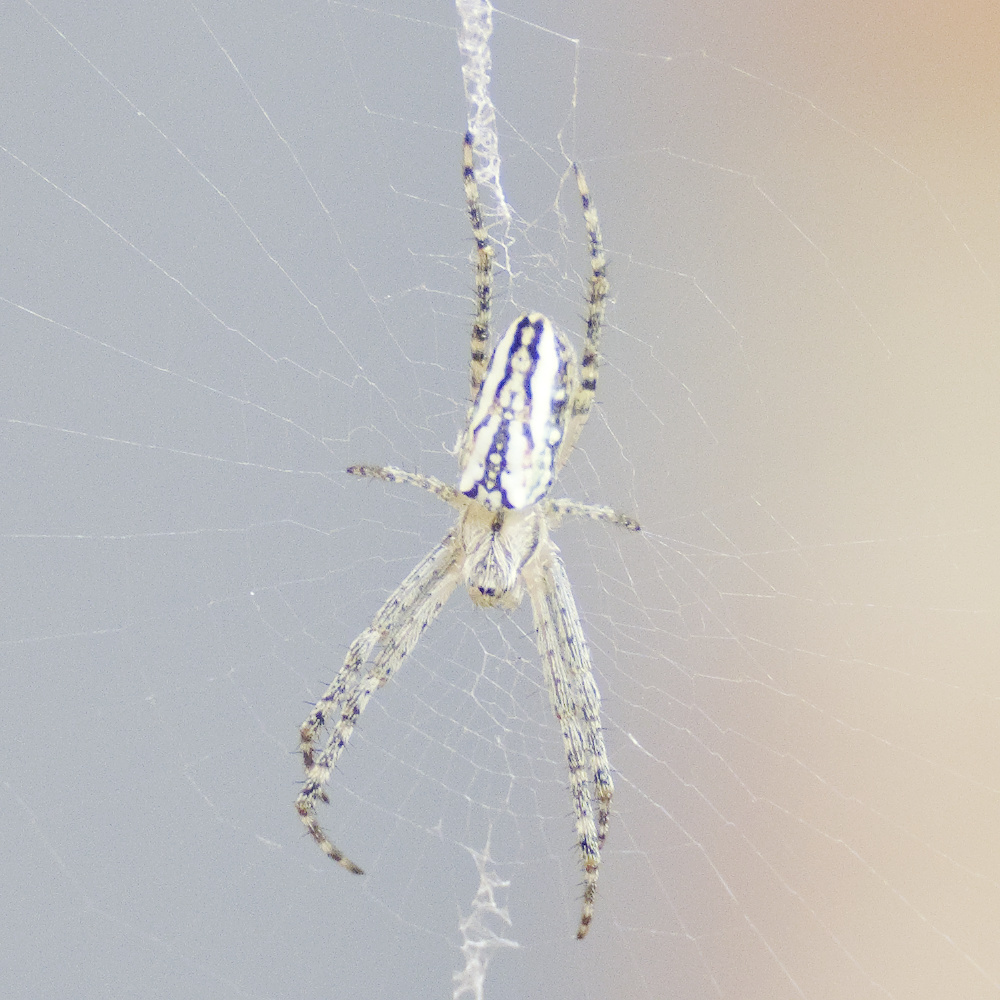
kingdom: Animalia
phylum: Arthropoda
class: Arachnida
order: Araneae
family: Araneidae
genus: Plebs
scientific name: Plebs bradleyi
